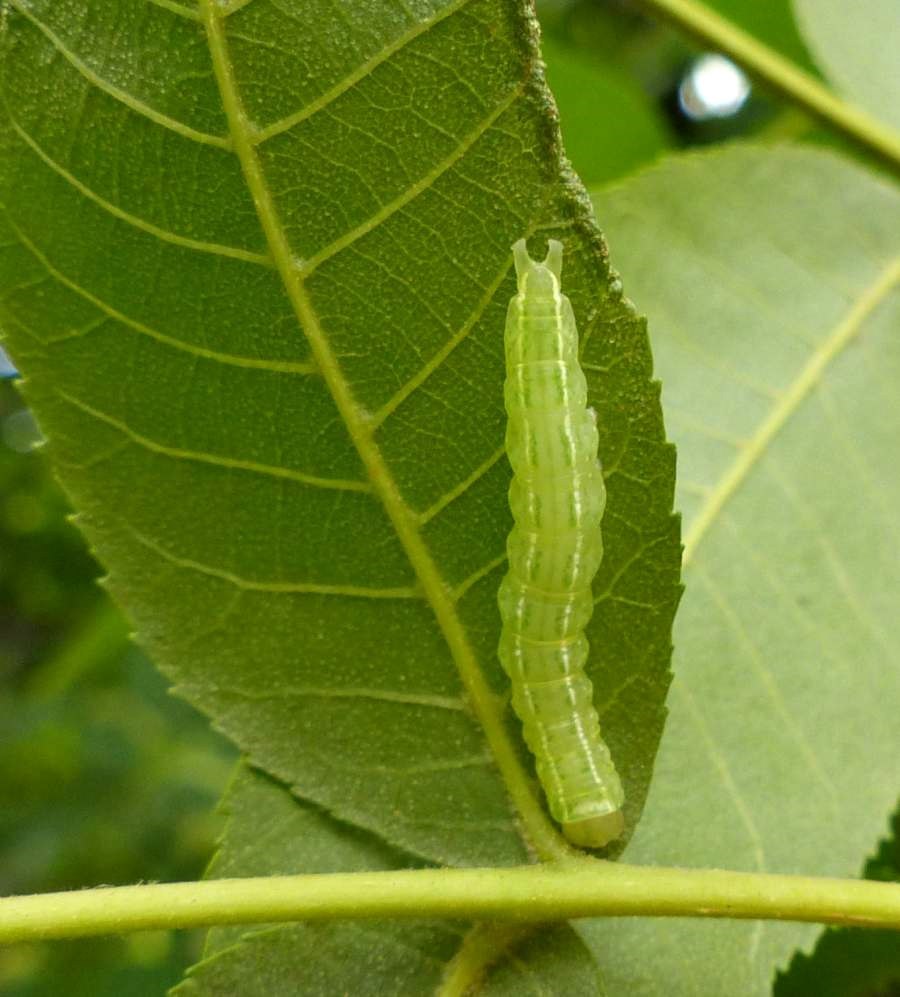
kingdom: Animalia
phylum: Arthropoda
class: Insecta
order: Lepidoptera
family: Nolidae
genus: Baileya
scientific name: Baileya dormitans
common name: Sleeping baileya moth
